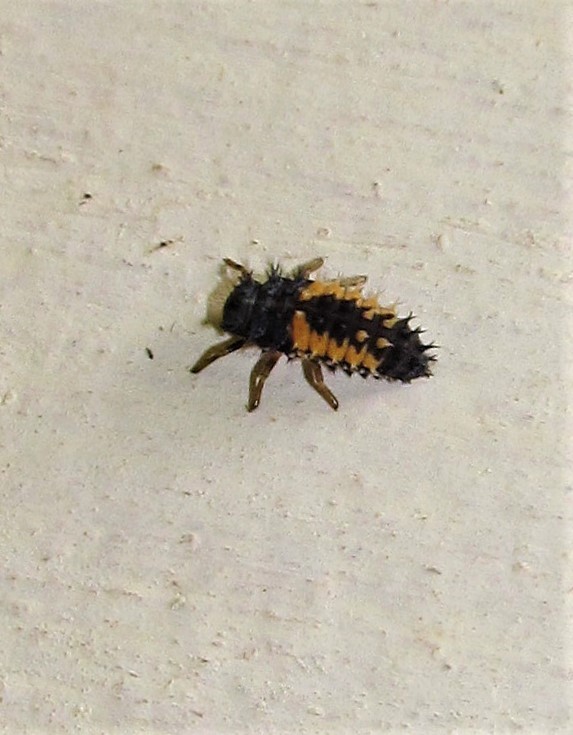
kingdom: Animalia
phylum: Arthropoda
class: Insecta
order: Coleoptera
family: Coccinellidae
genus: Harmonia
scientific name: Harmonia axyridis
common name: Harlequin ladybird
